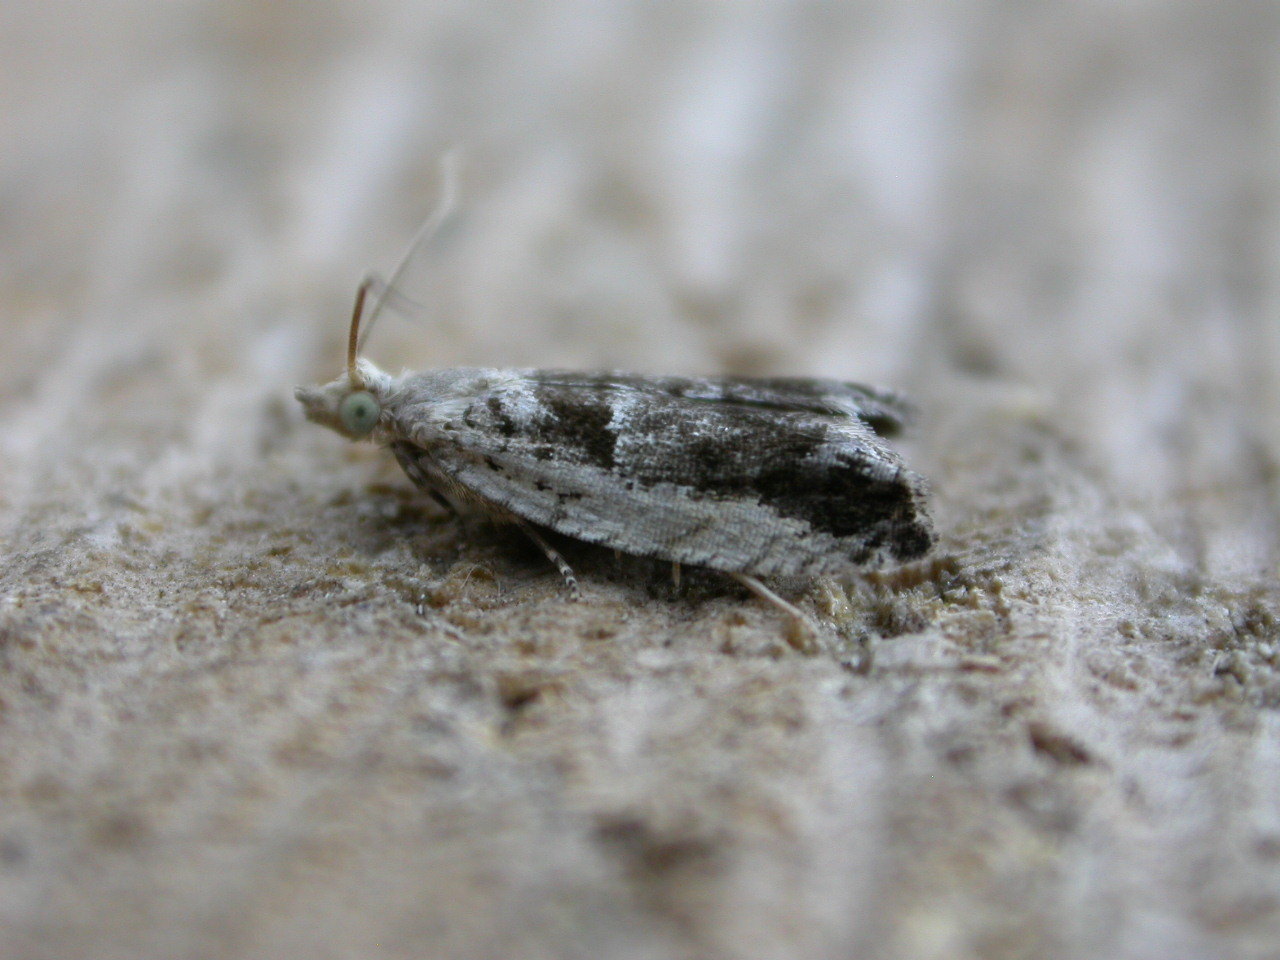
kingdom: Animalia
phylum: Arthropoda
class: Insecta
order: Lepidoptera
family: Tortricidae
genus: Epinotia
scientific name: Epinotia ramella
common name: Small birch bell
